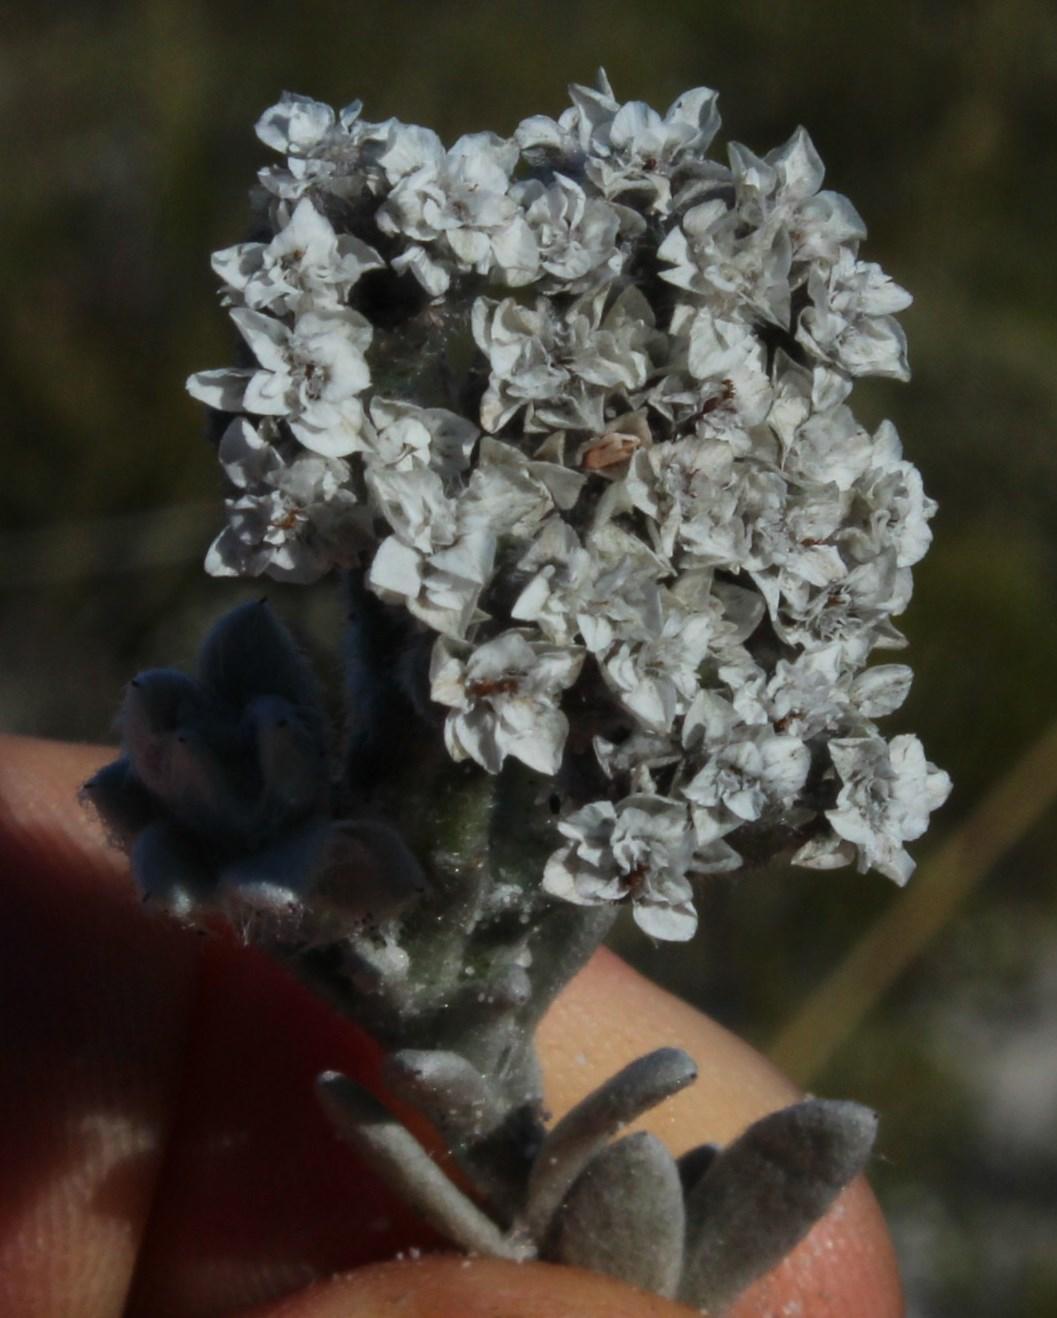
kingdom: Plantae
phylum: Tracheophyta
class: Magnoliopsida
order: Asterales
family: Asteraceae
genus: Petalacte
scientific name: Petalacte coronata
